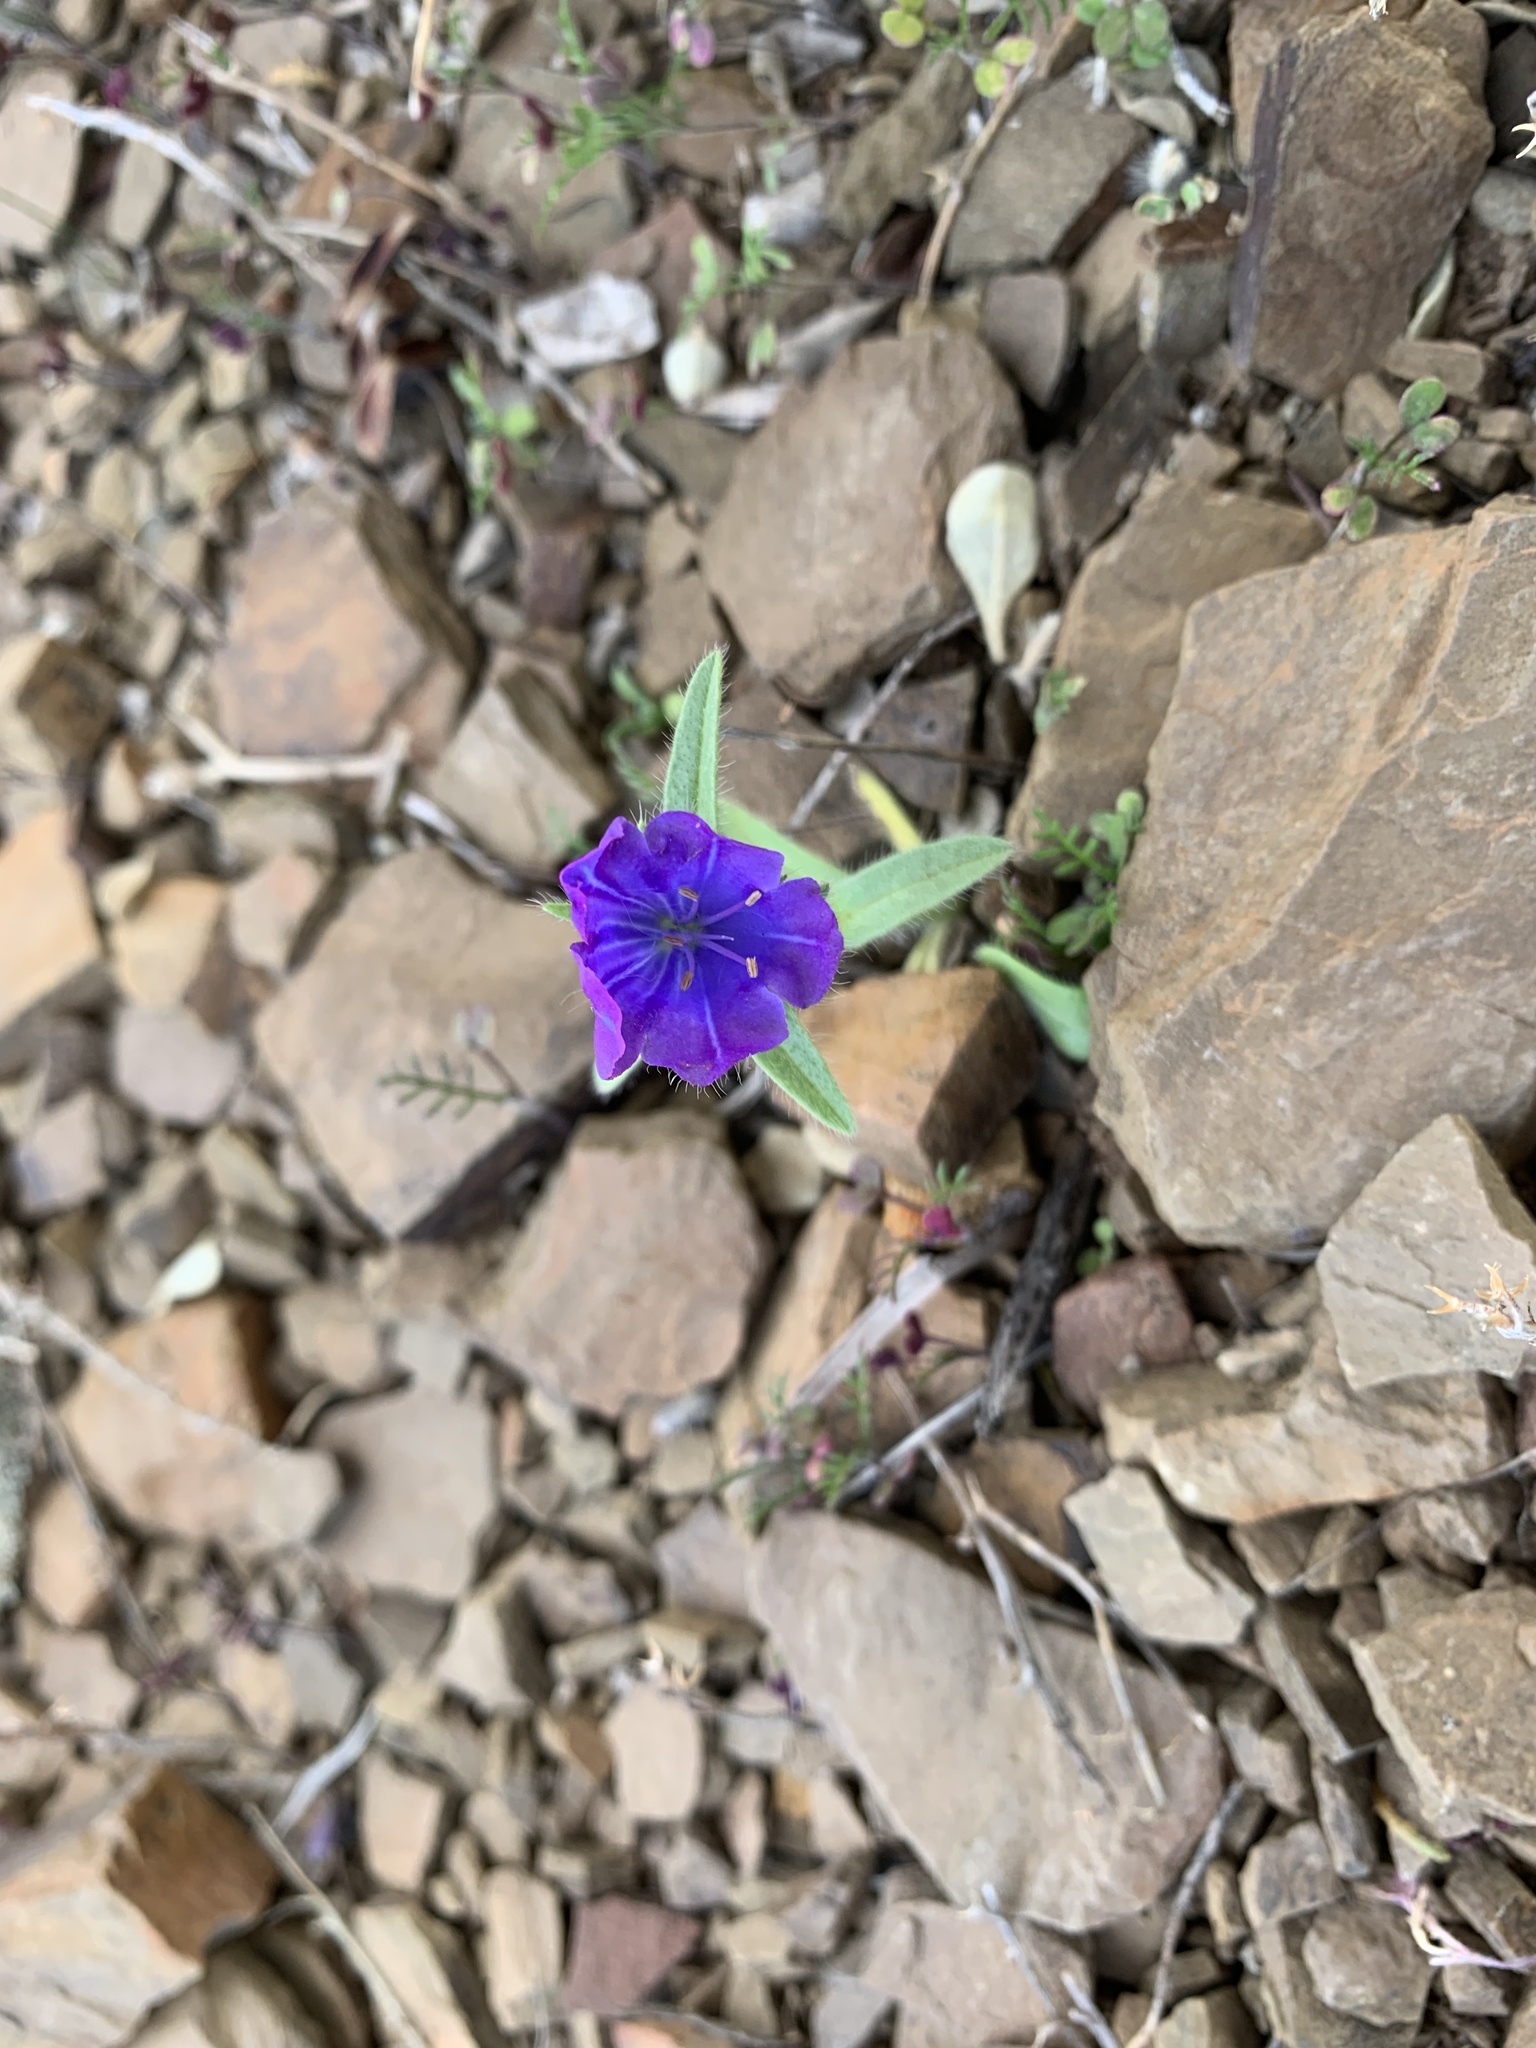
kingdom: Plantae
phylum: Tracheophyta
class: Magnoliopsida
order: Boraginales
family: Boraginaceae
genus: Echium
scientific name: Echium plantagineum
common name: Purple viper's-bugloss
